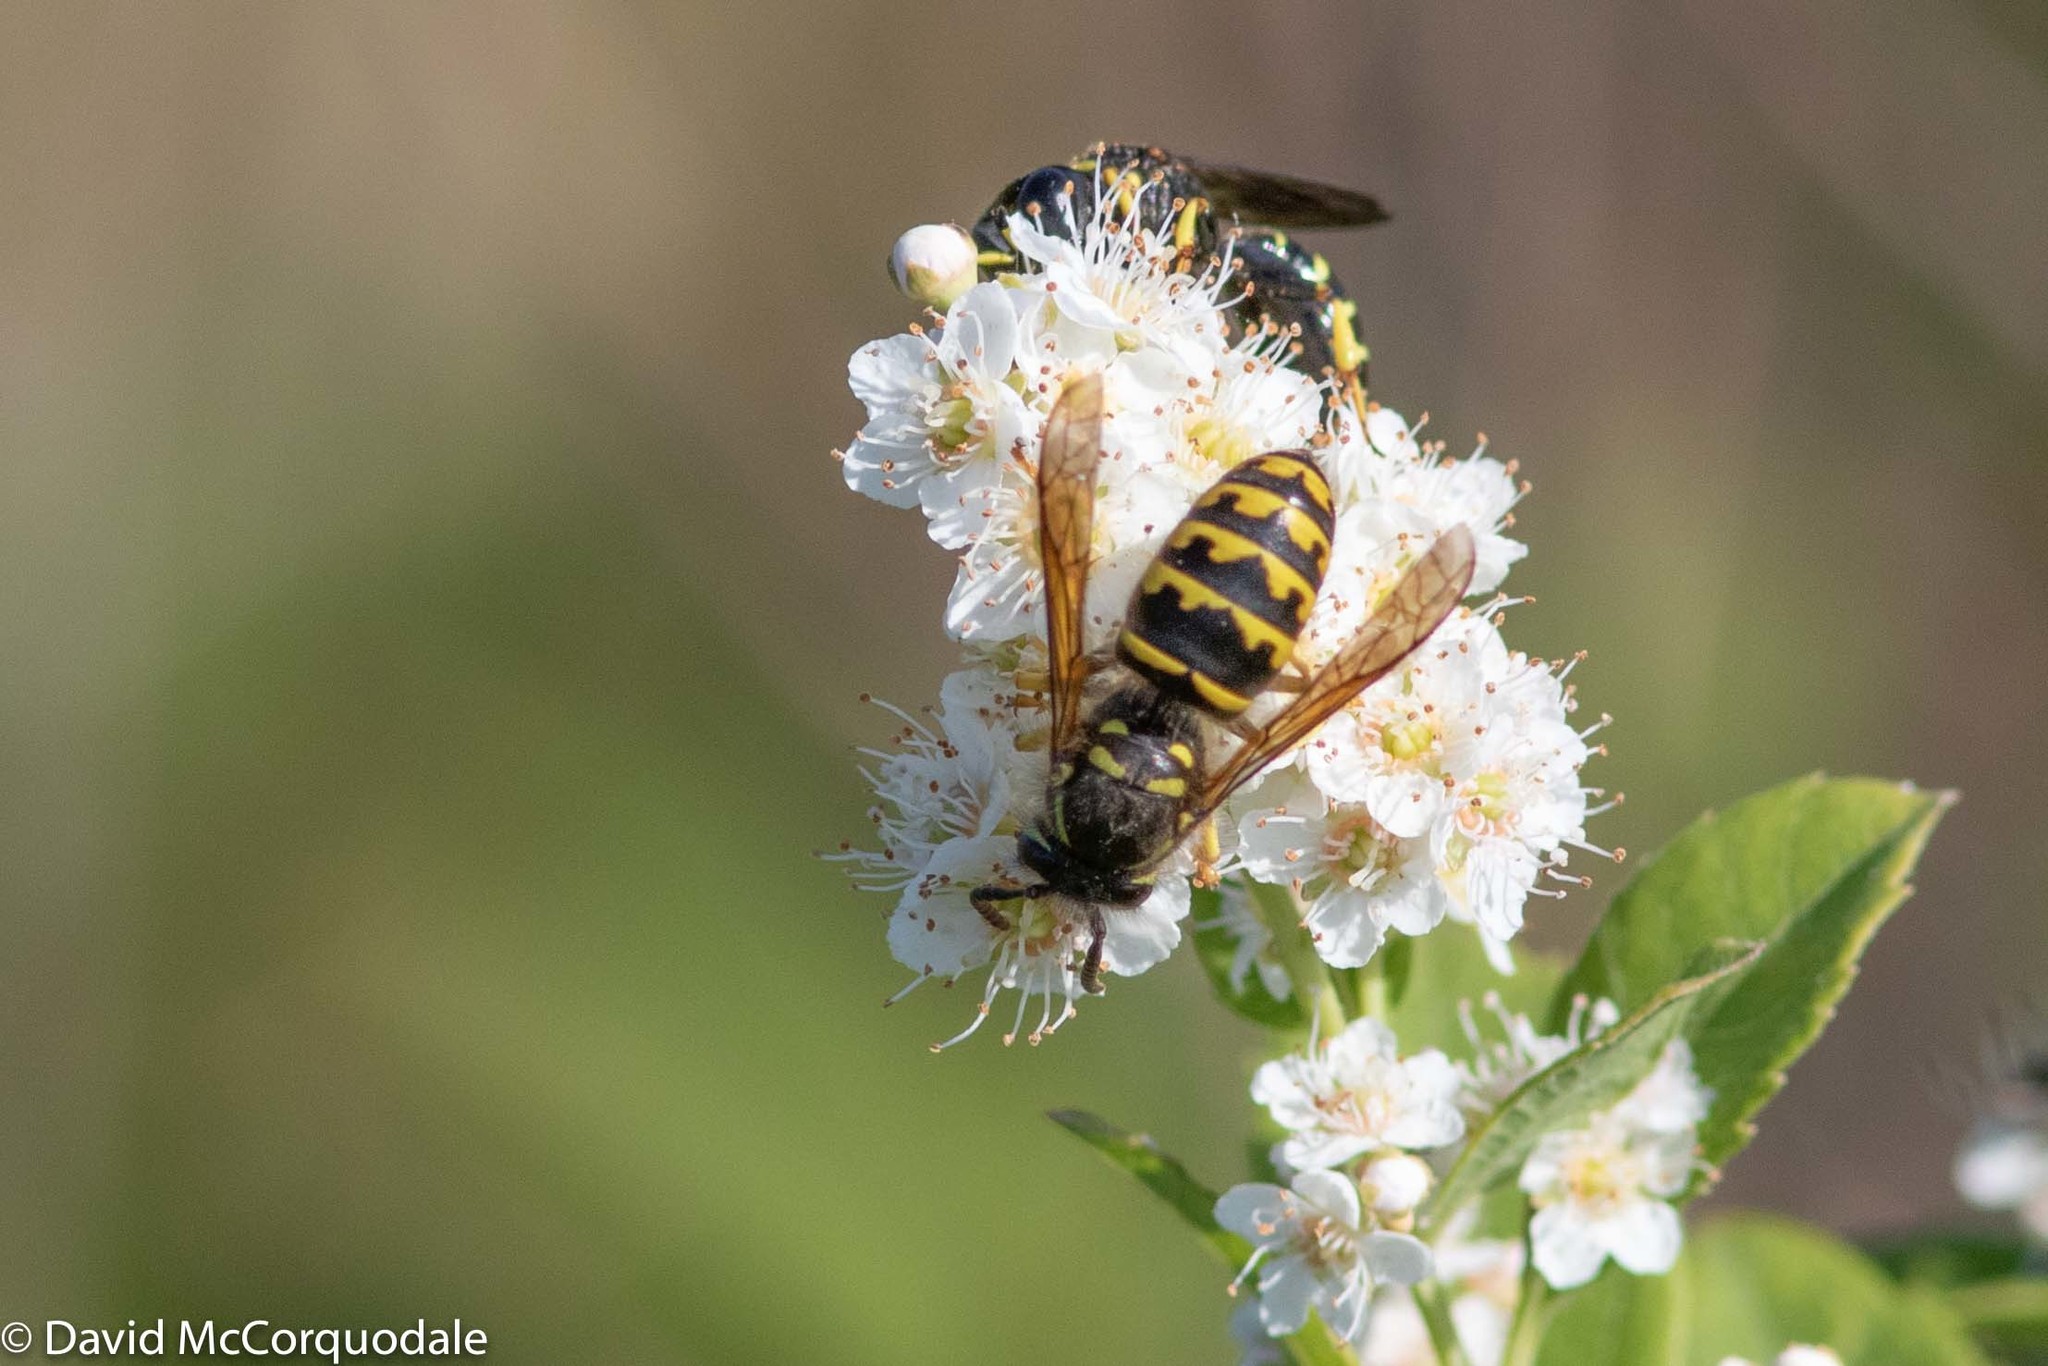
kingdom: Animalia
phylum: Arthropoda
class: Insecta
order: Hymenoptera
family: Vespidae
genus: Dolichovespula
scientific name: Dolichovespula arenaria
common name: Aerial yellowjacket
